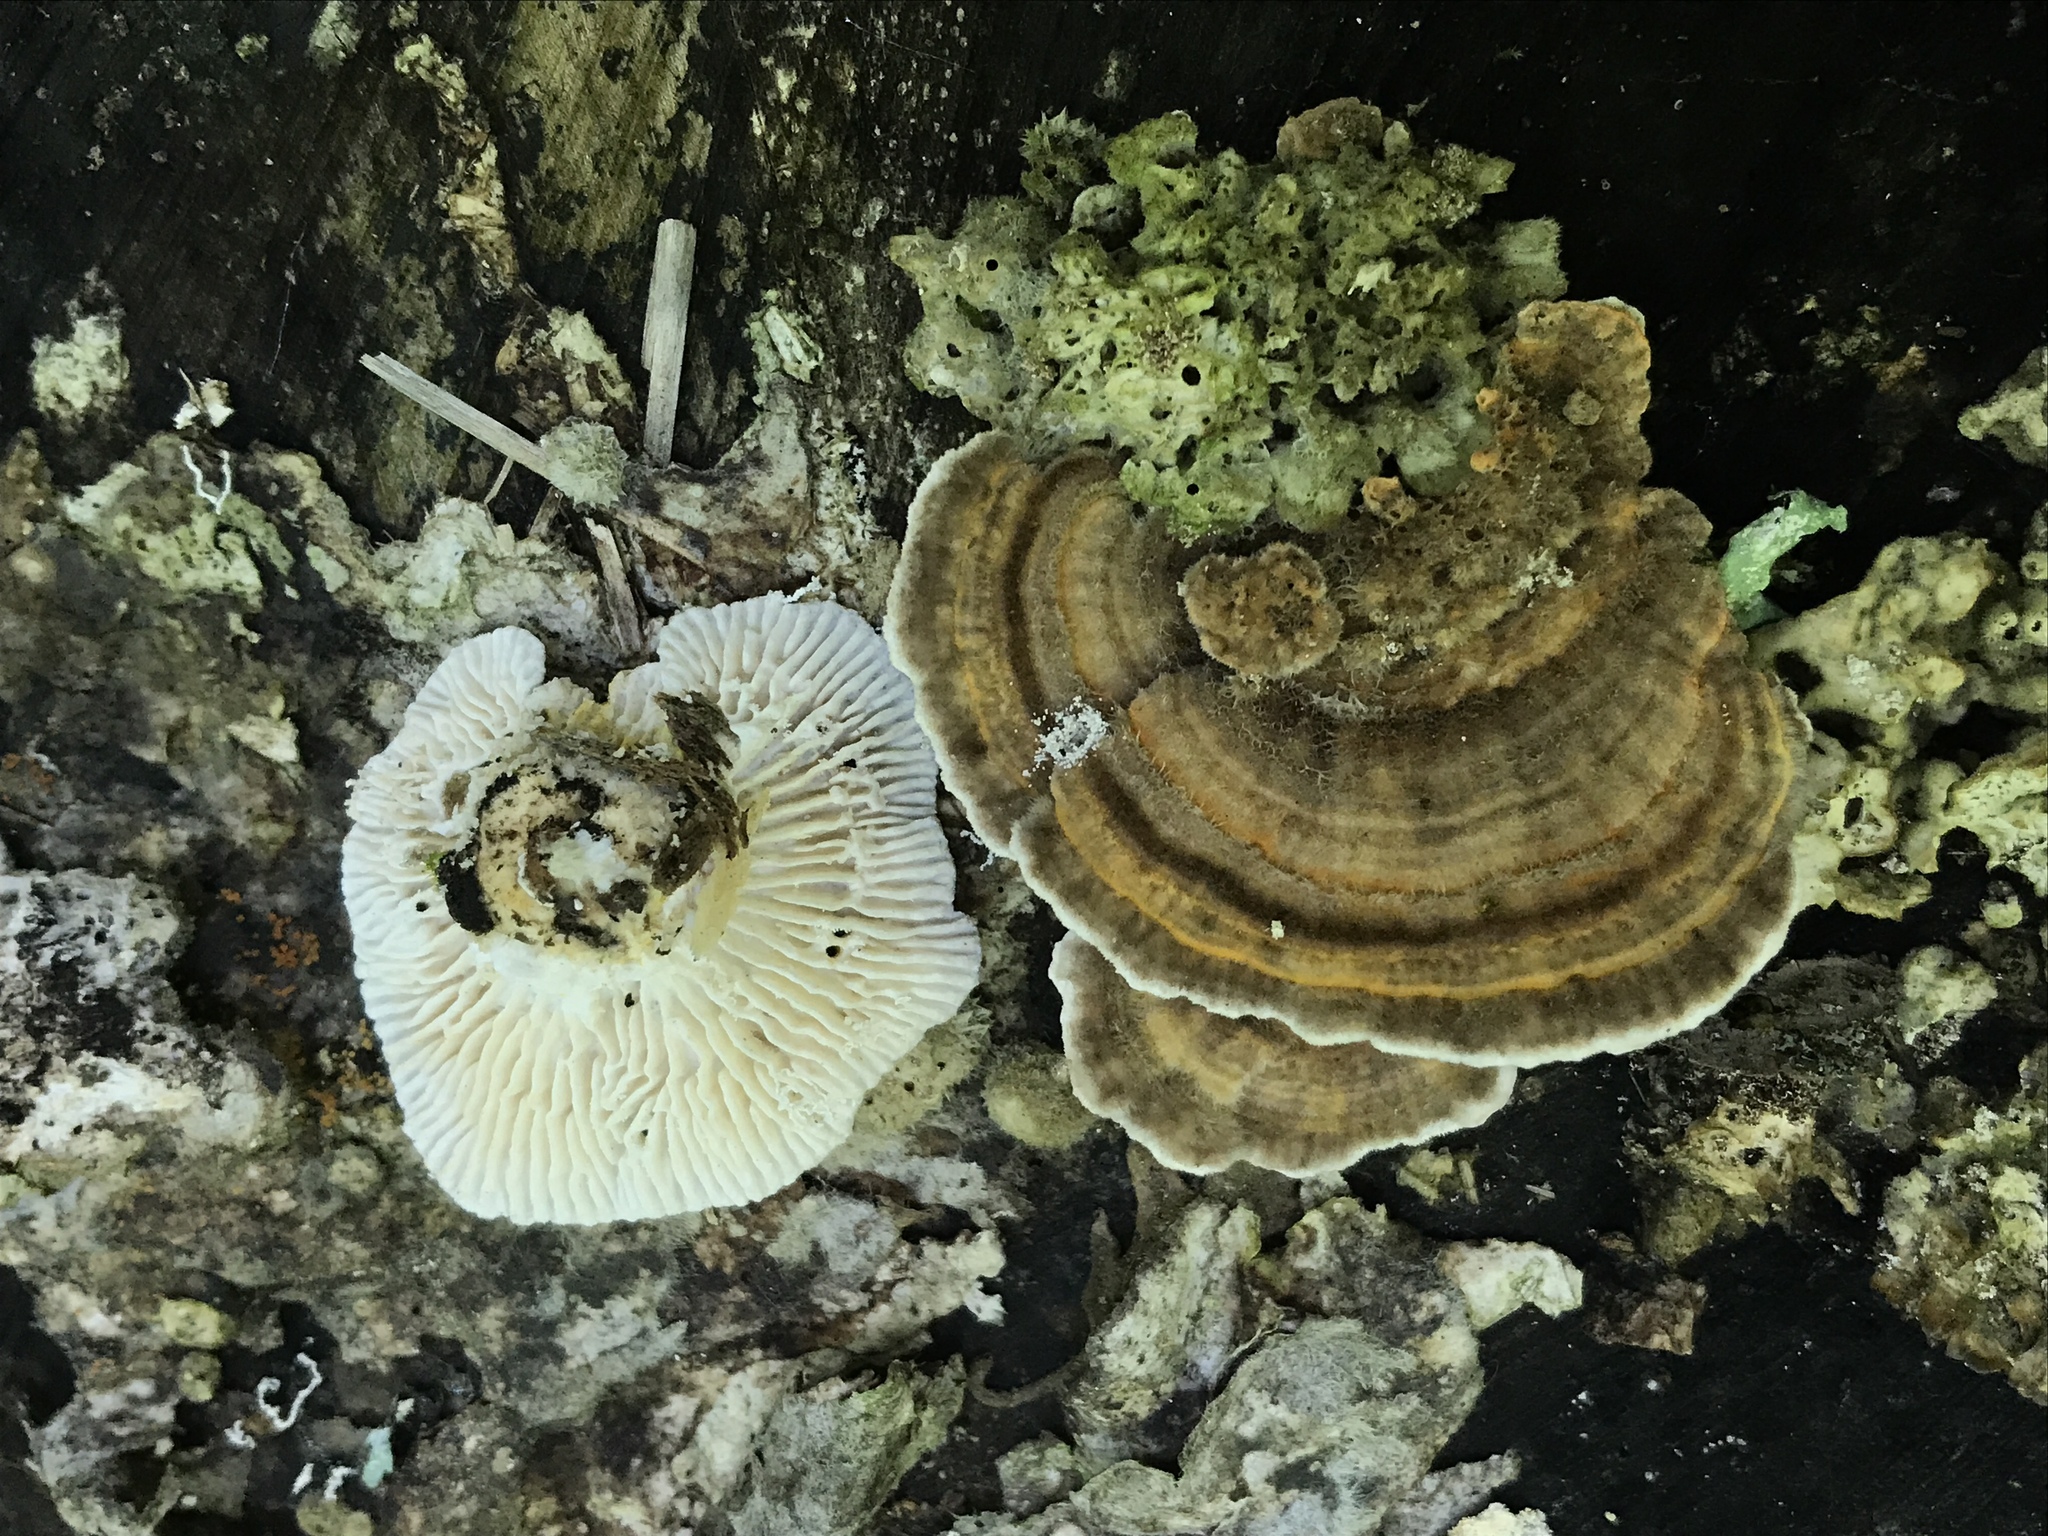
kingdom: Fungi
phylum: Basidiomycota
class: Agaricomycetes
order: Polyporales
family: Polyporaceae
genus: Lenzites
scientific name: Lenzites betulinus
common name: Birch mazegill
